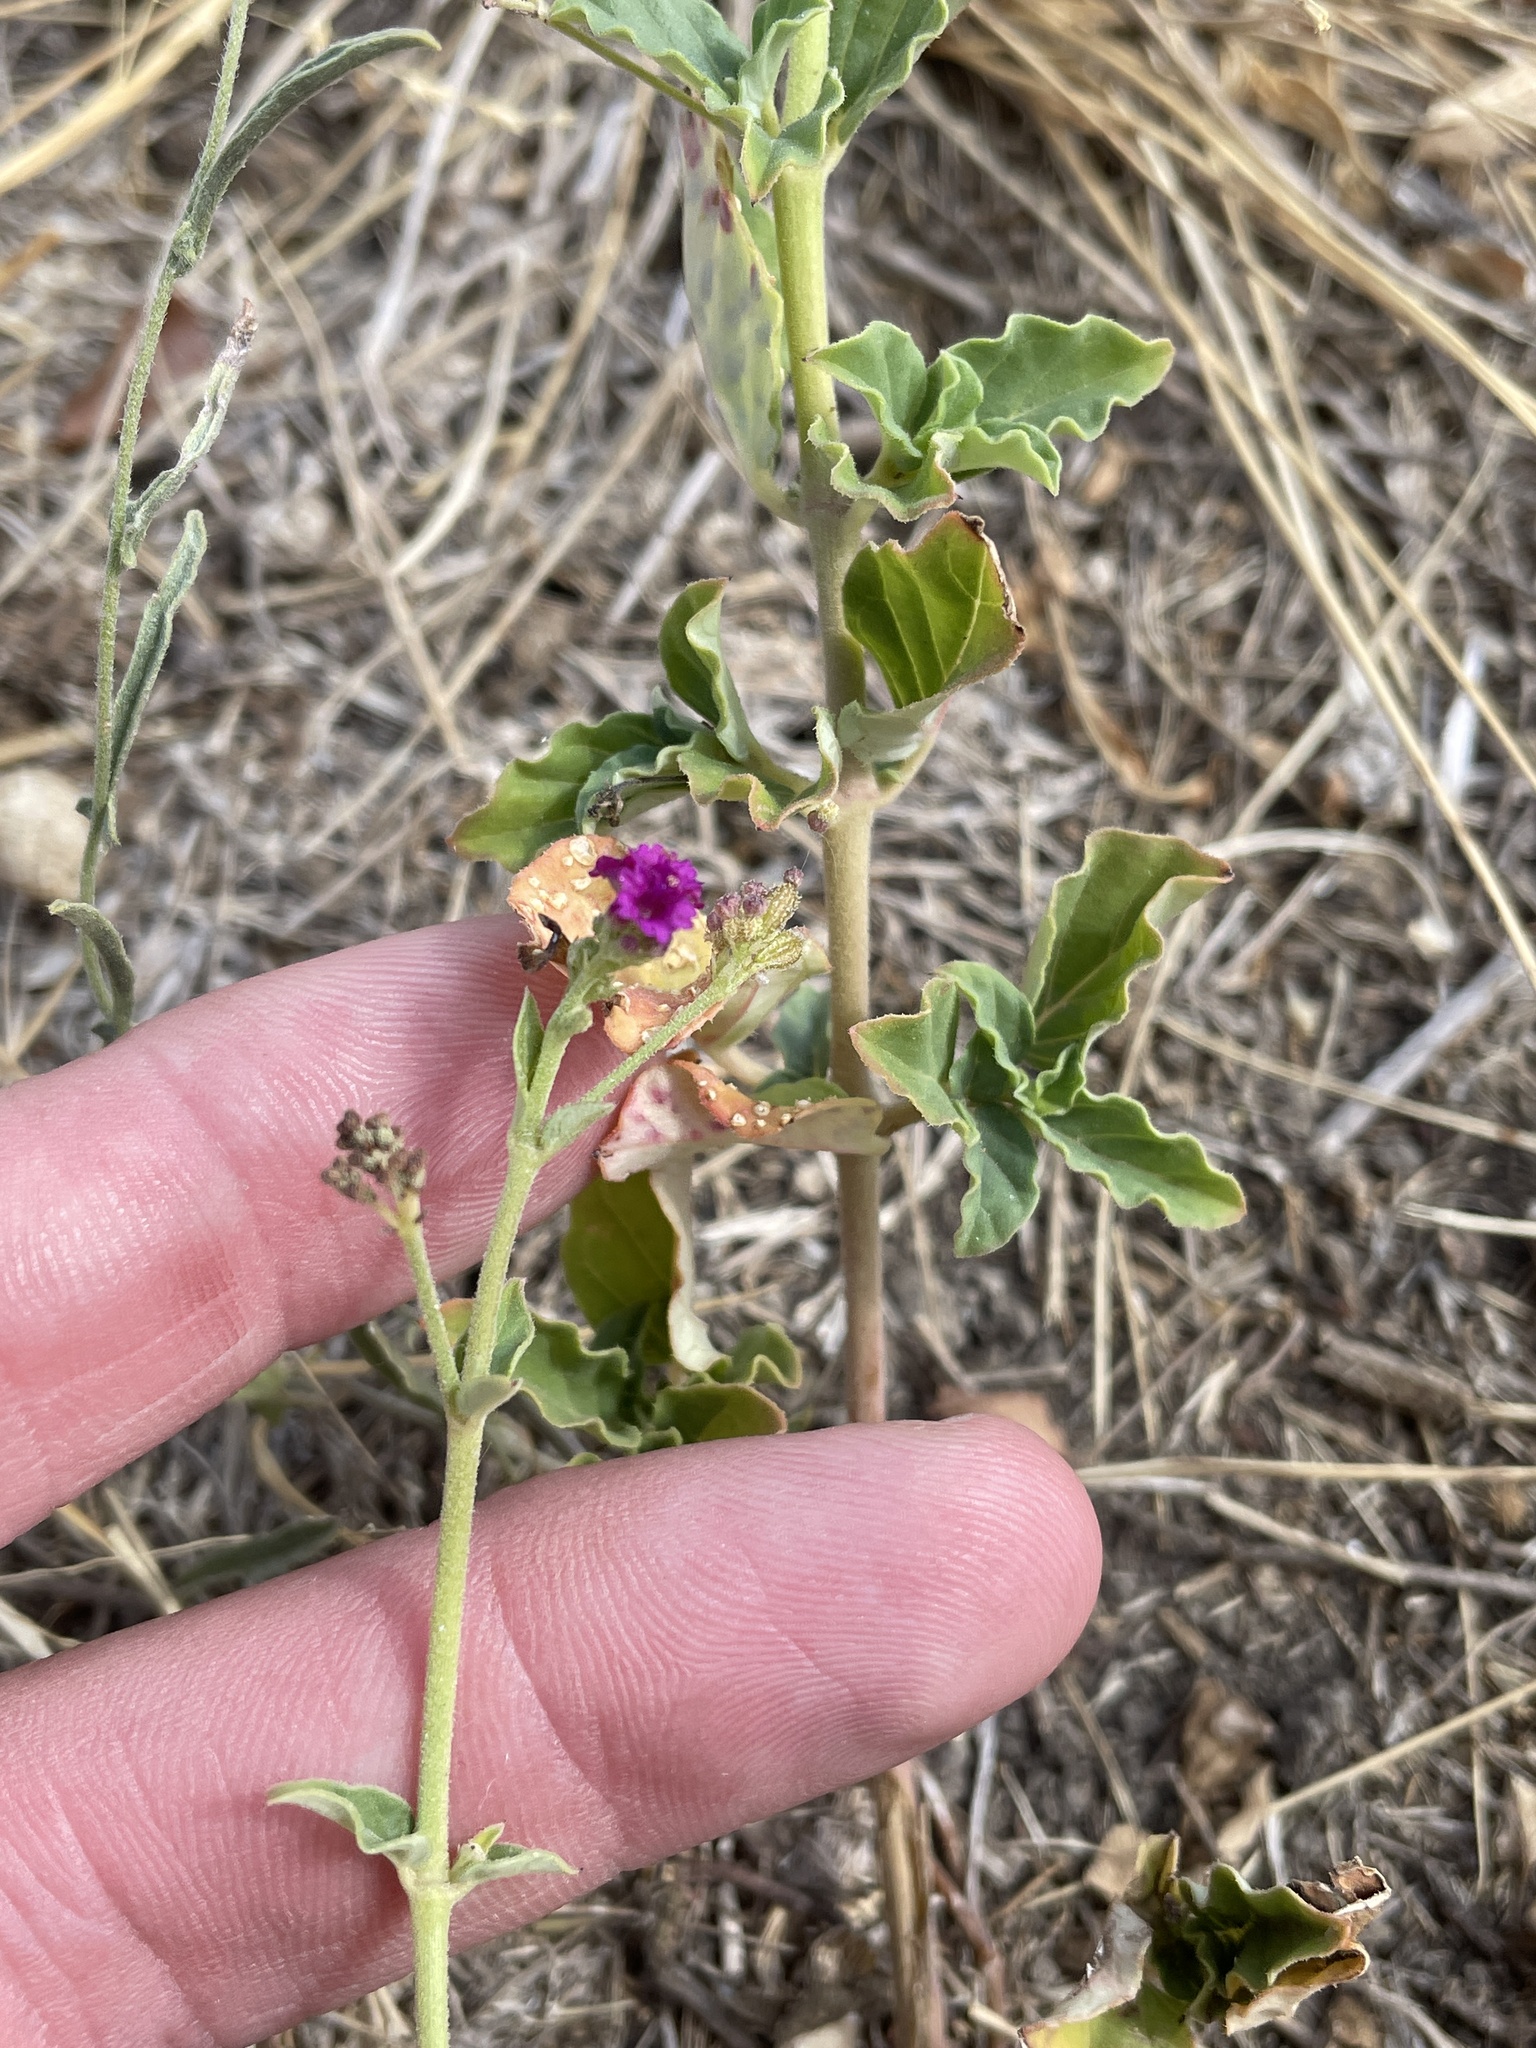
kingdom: Plantae
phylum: Tracheophyta
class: Magnoliopsida
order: Caryophyllales
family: Nyctaginaceae
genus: Boerhavia
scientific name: Boerhavia coccinea
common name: Scarlet spiderling
